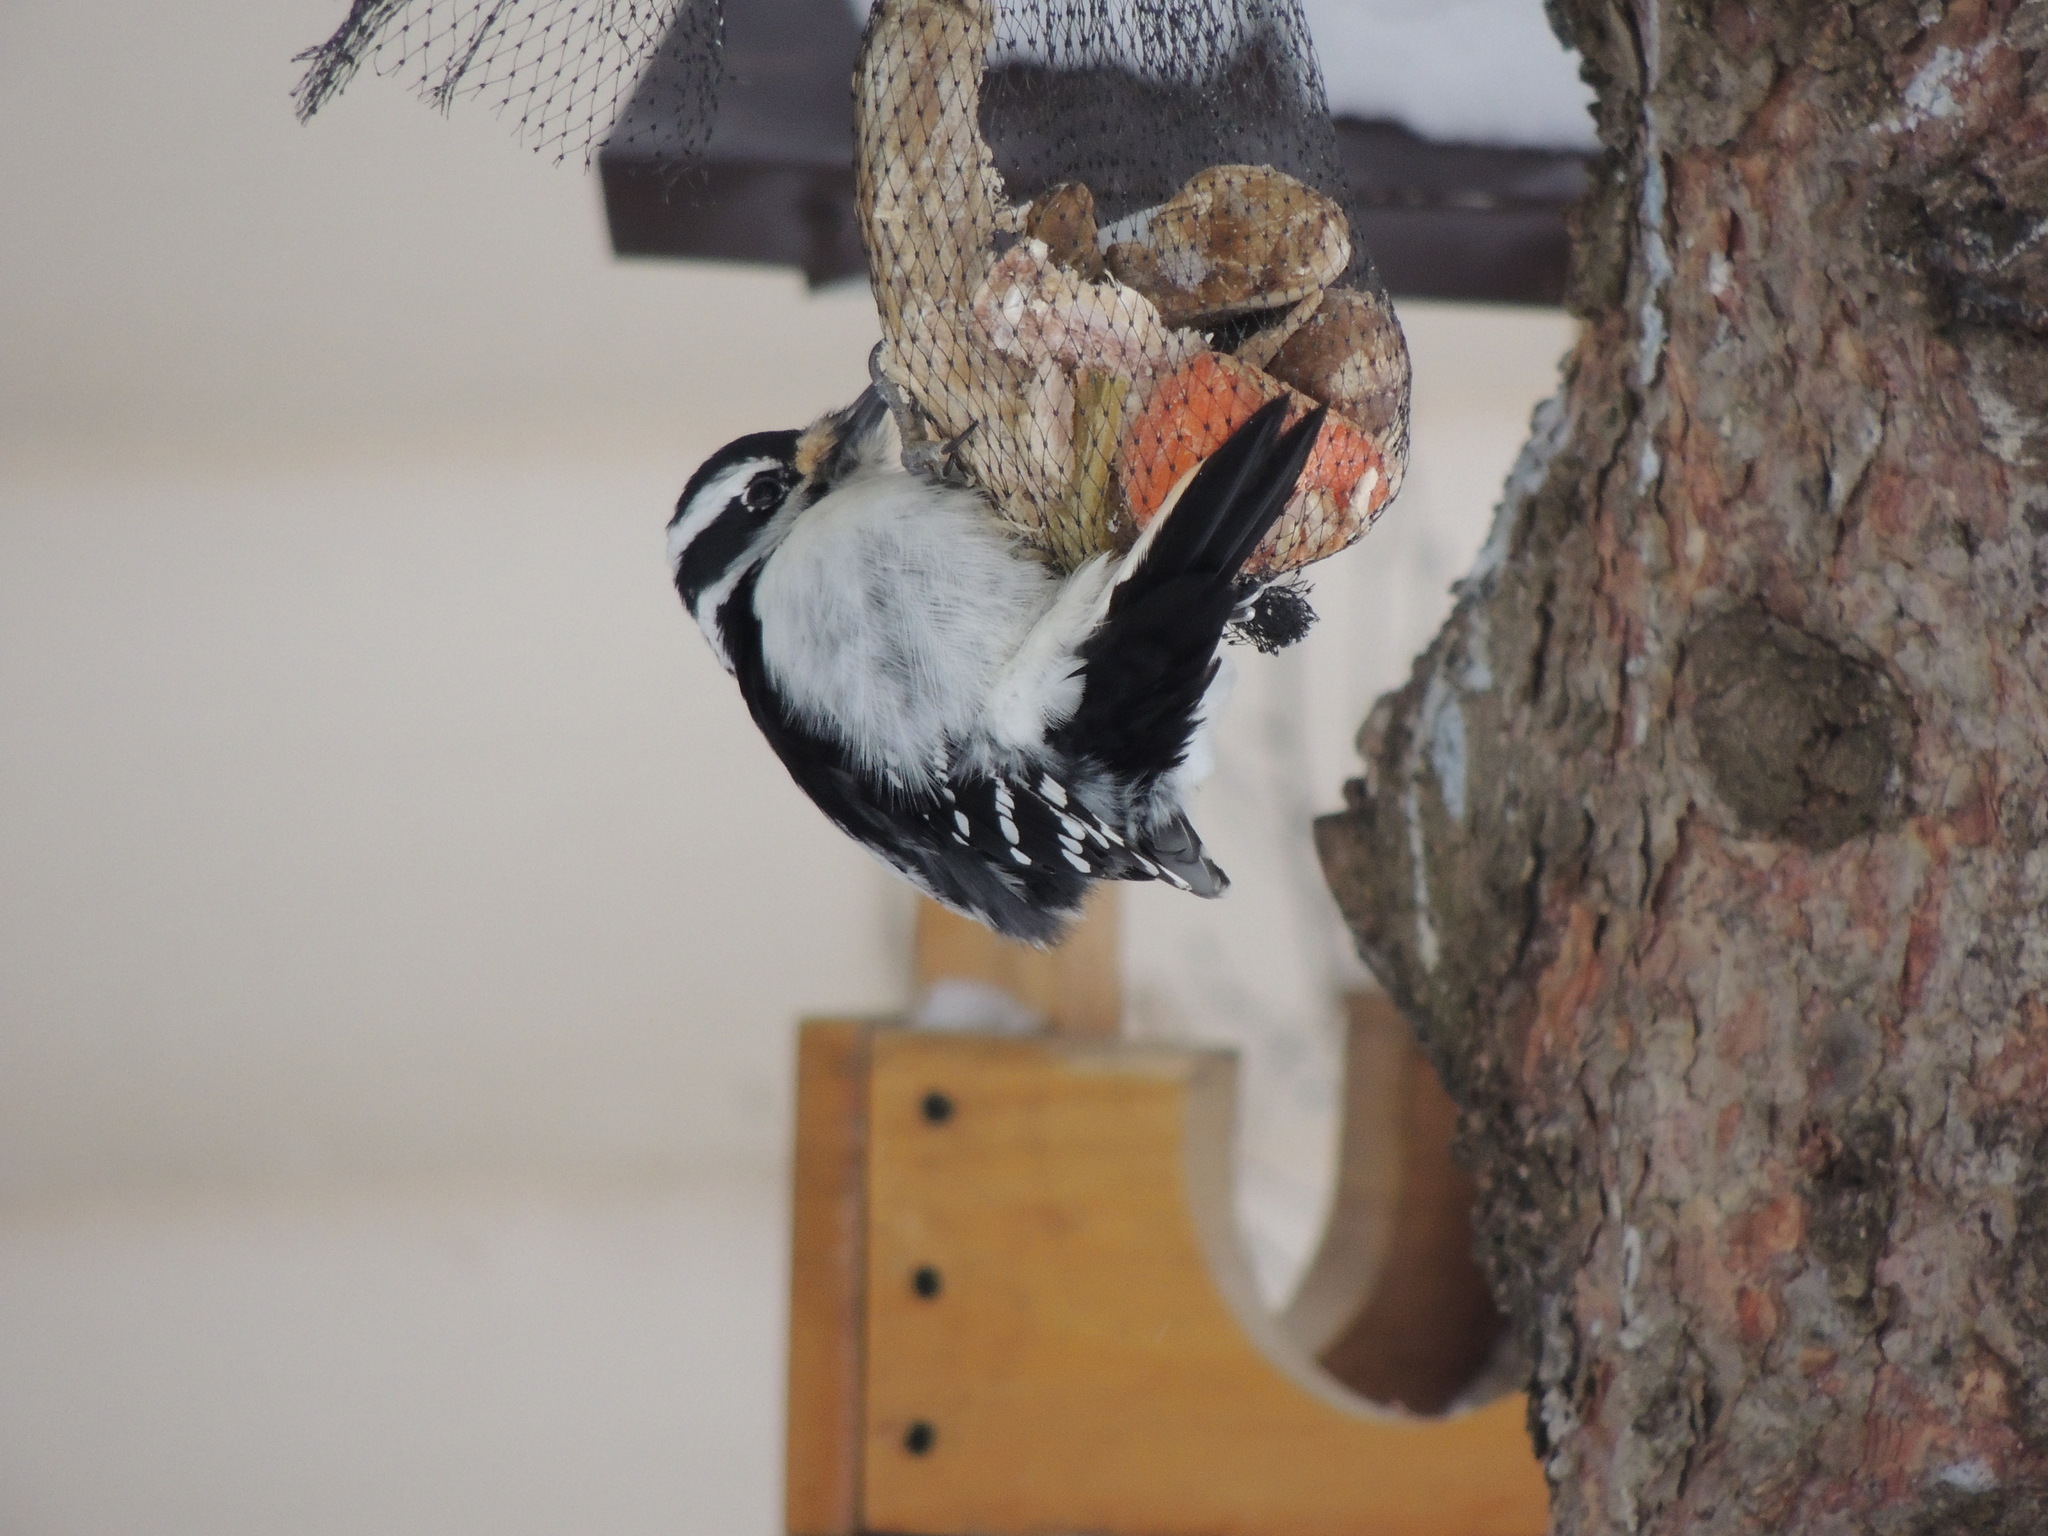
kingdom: Animalia
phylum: Chordata
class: Aves
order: Piciformes
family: Picidae
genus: Leuconotopicus
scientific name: Leuconotopicus villosus
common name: Hairy woodpecker
